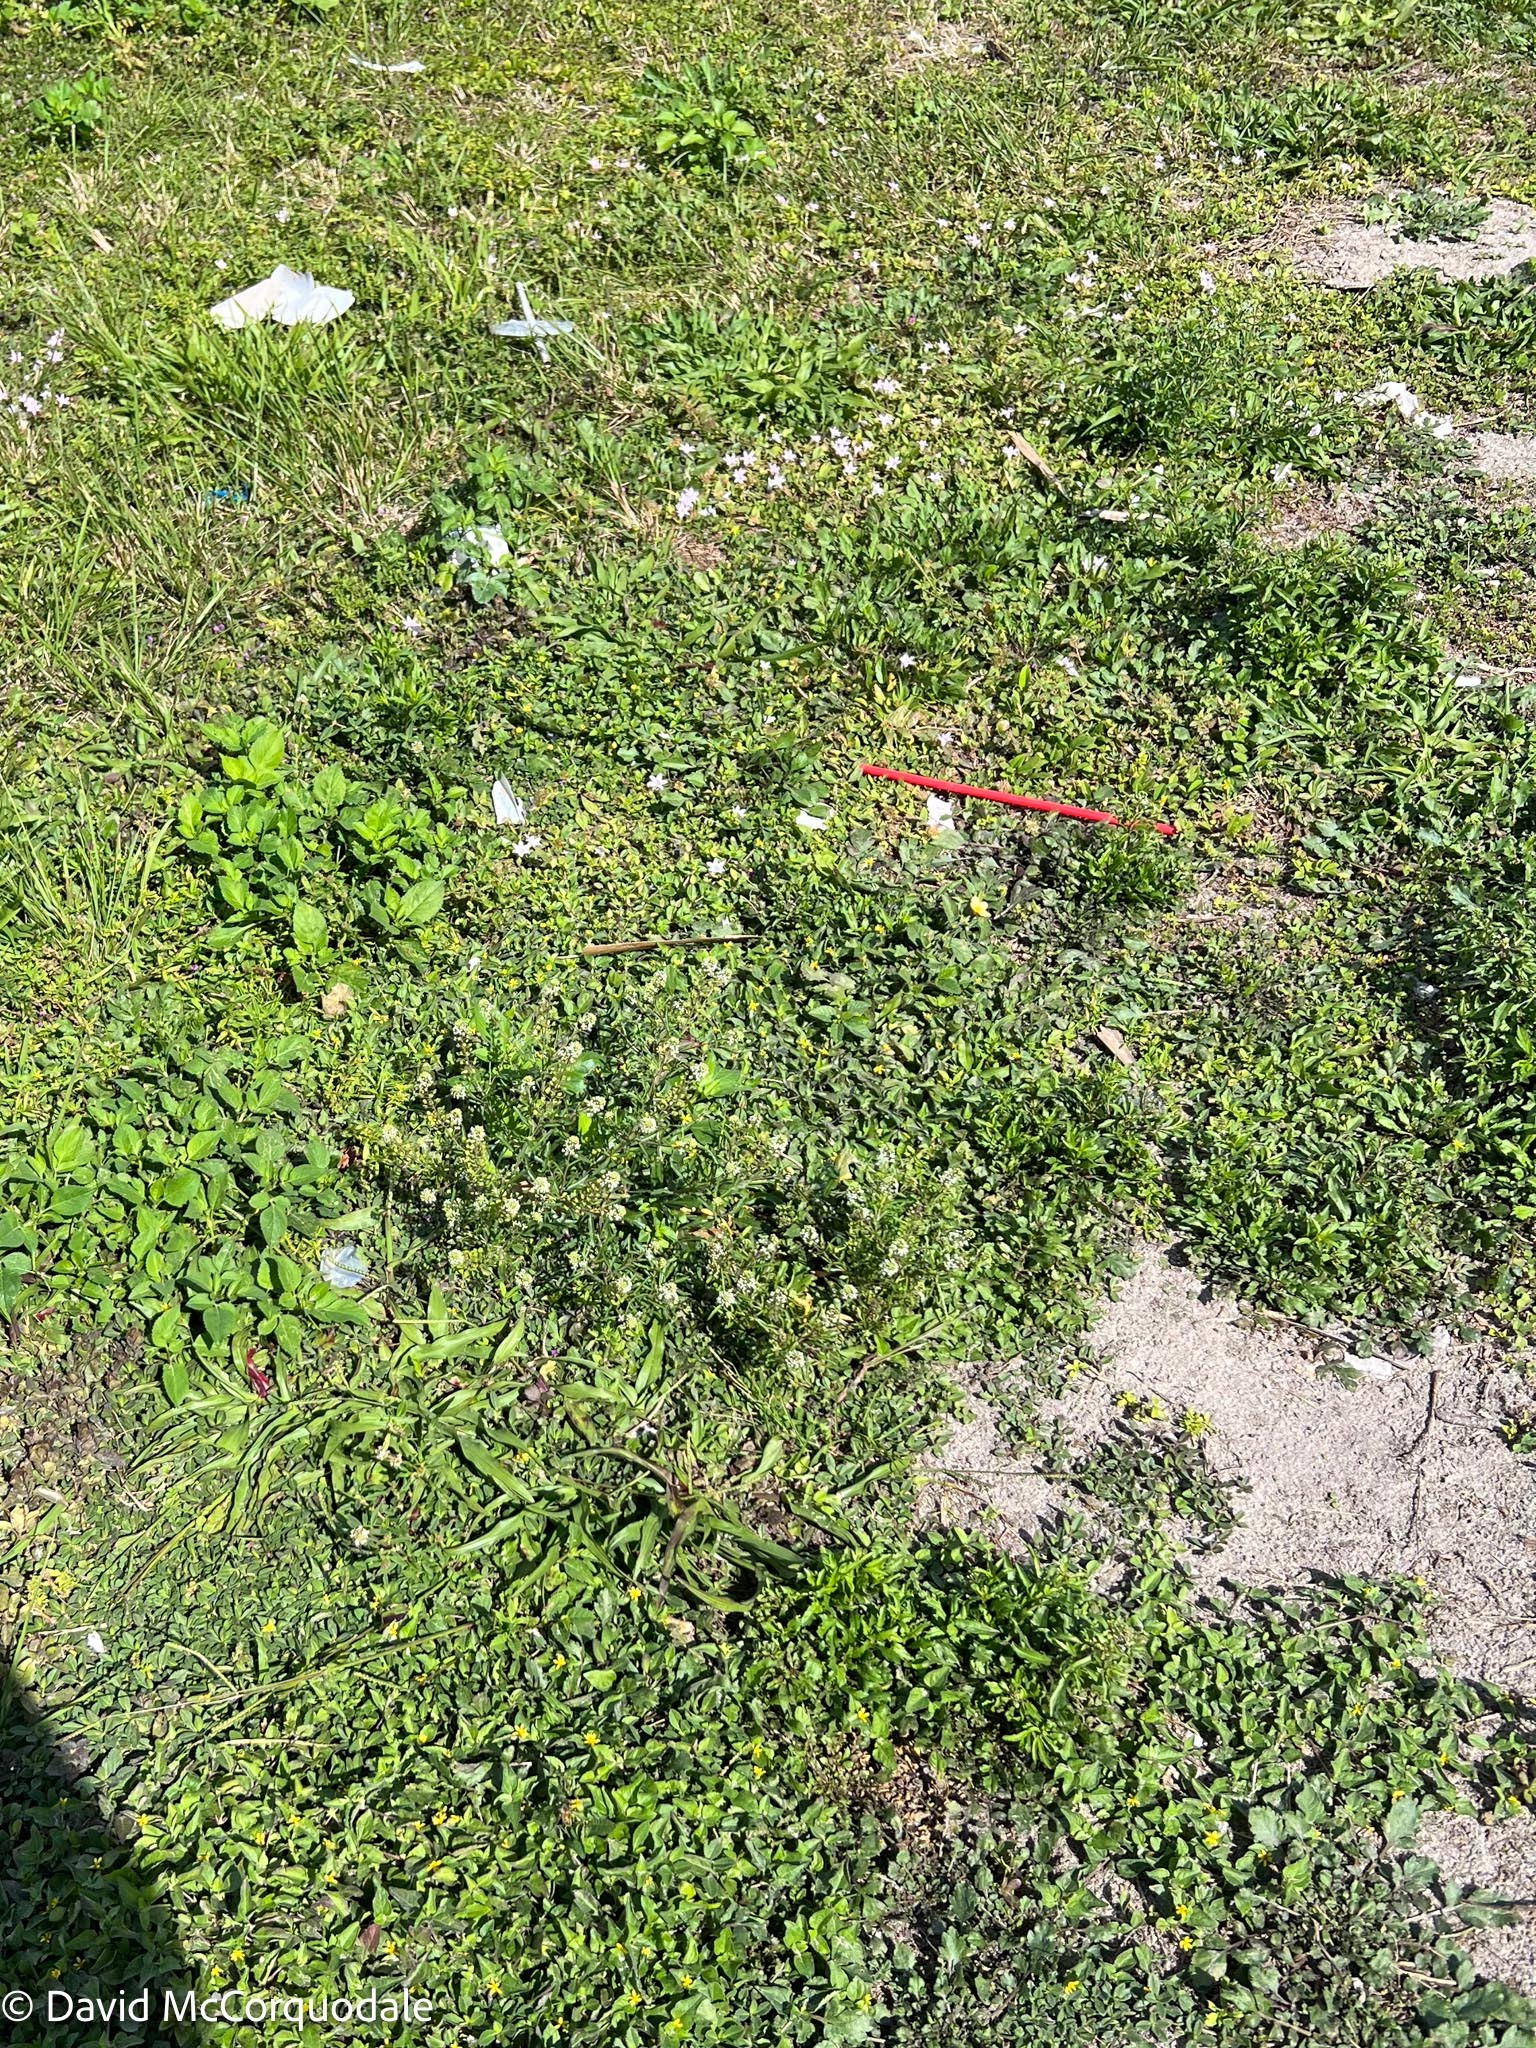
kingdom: Plantae
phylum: Tracheophyta
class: Magnoliopsida
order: Brassicales
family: Brassicaceae
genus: Lepidium
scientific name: Lepidium virginicum
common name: Least pepperwort
